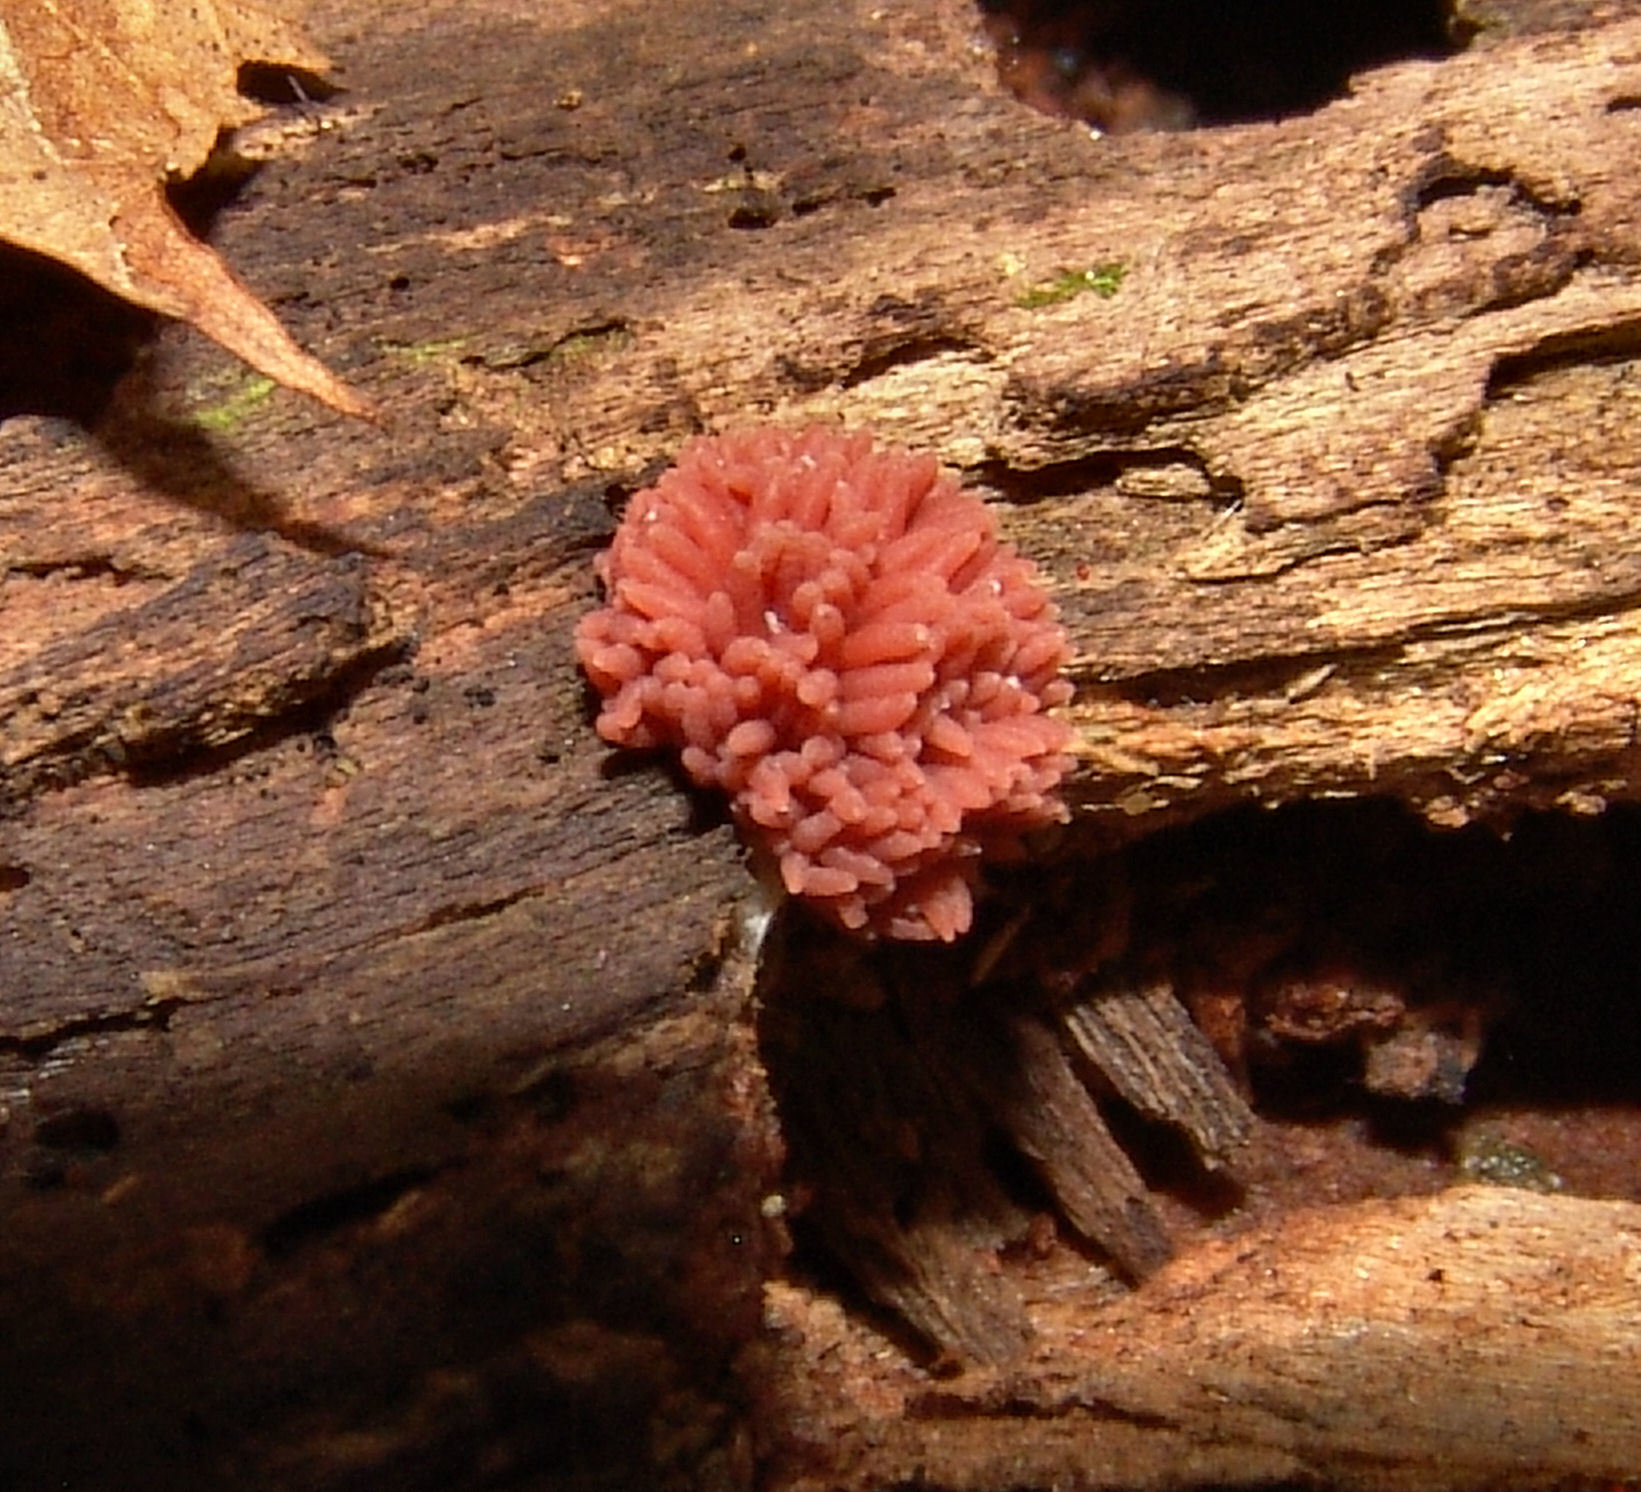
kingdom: Protozoa
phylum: Mycetozoa
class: Myxomycetes
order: Trichiales
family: Arcyriaceae
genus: Arcyria
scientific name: Arcyria incarnata
